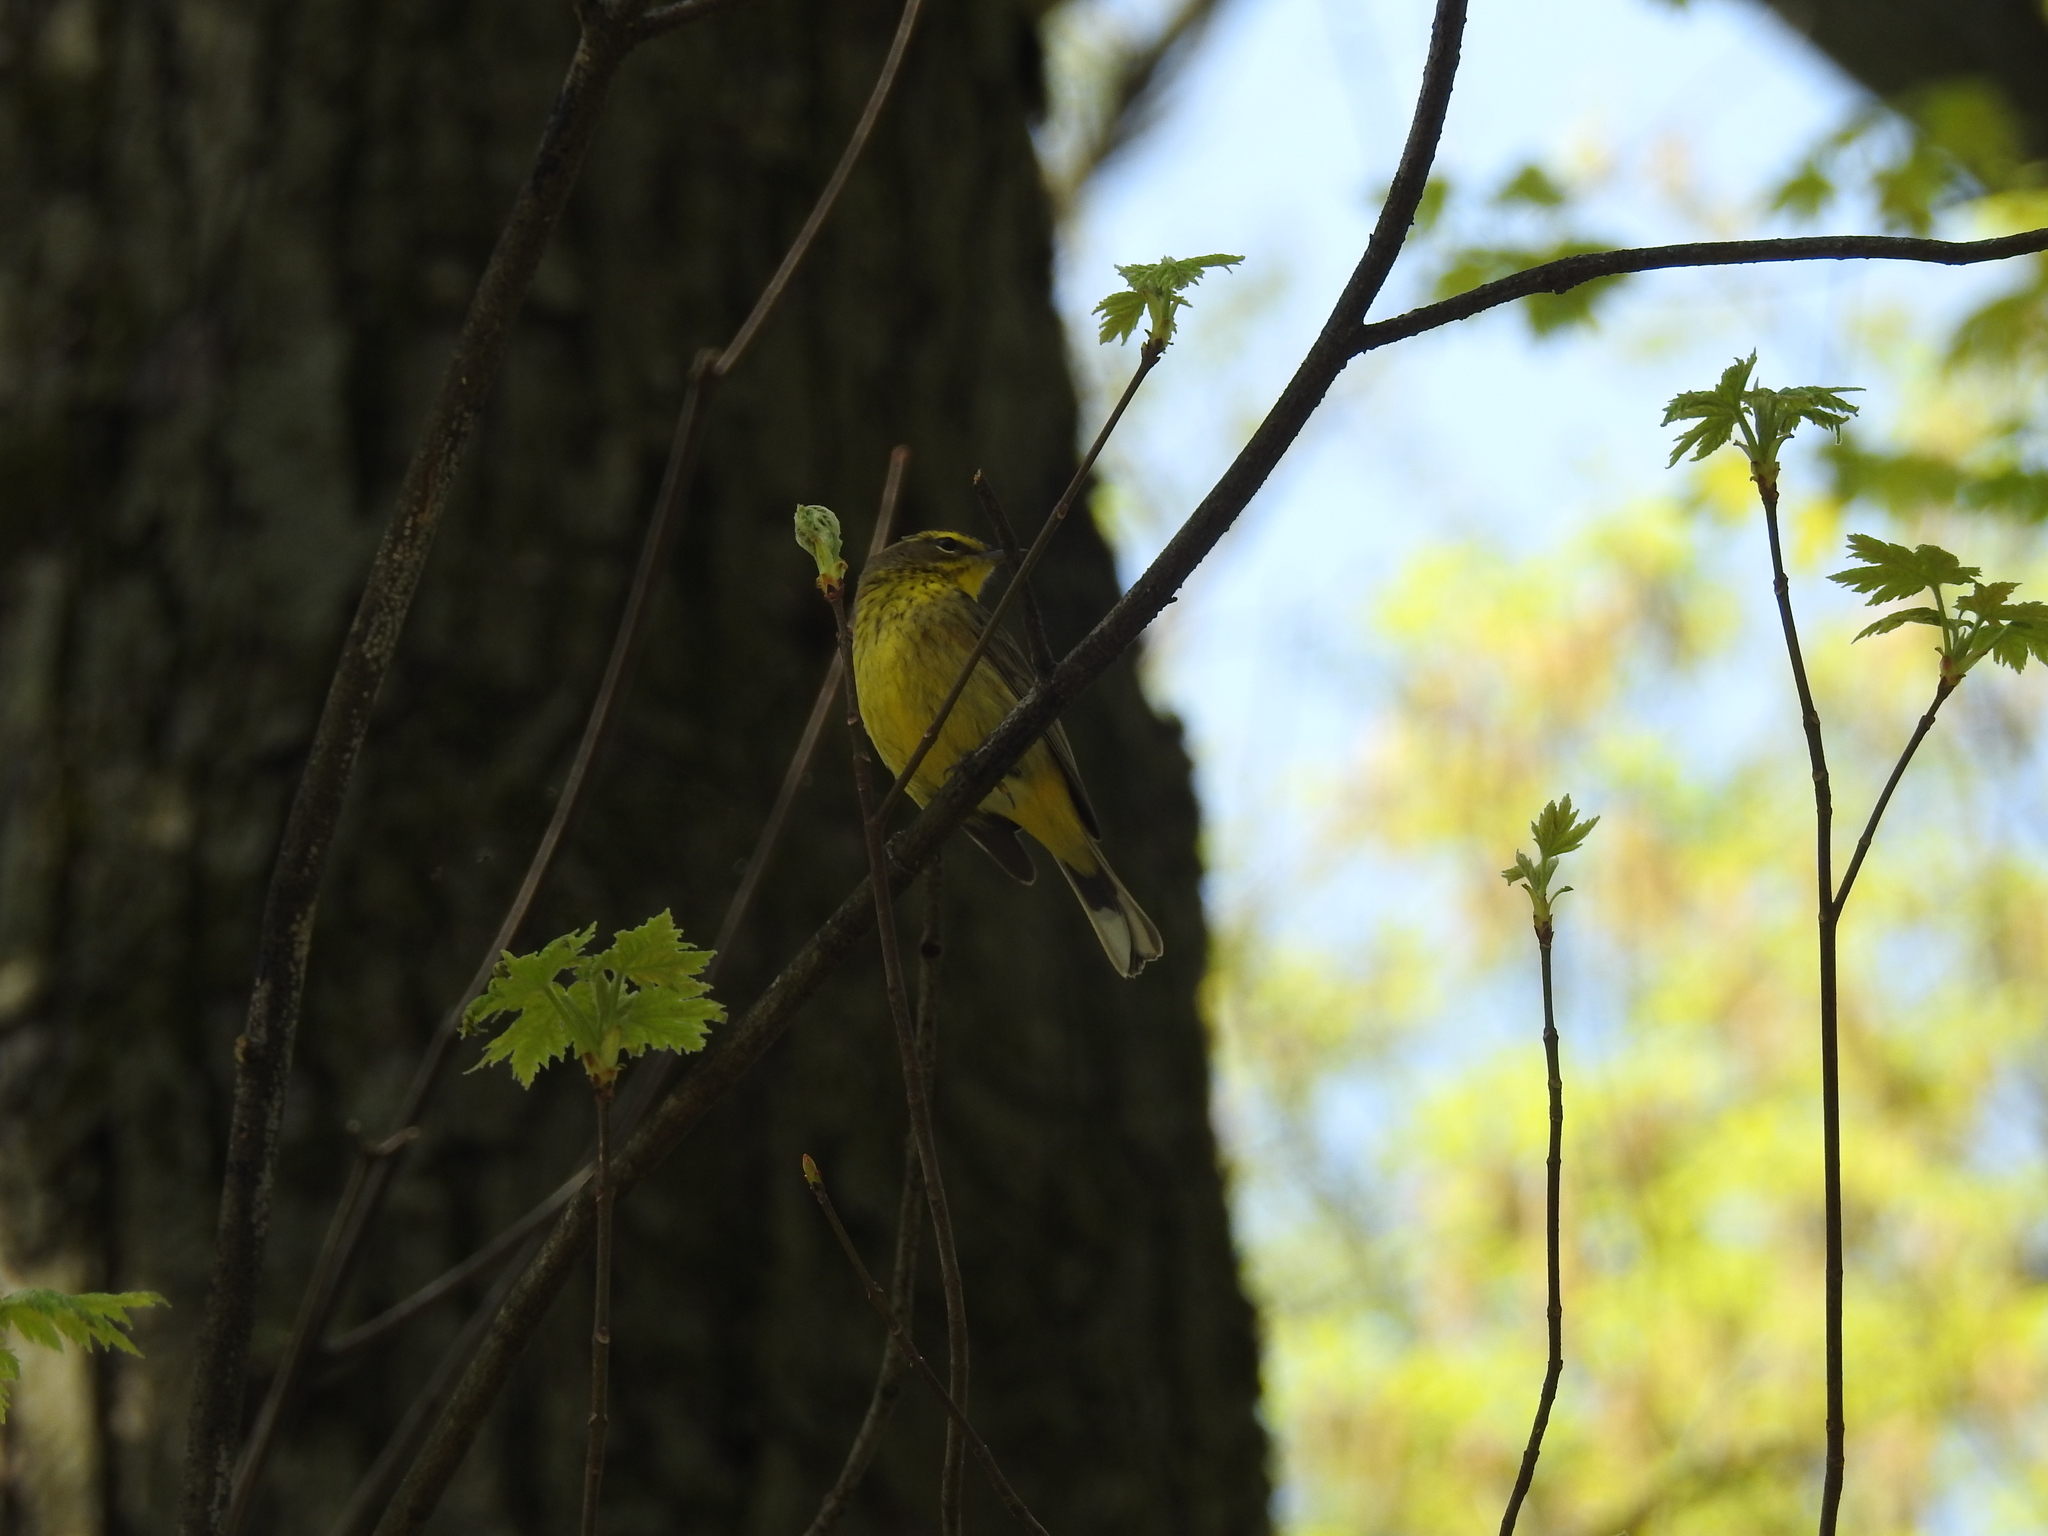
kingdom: Animalia
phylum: Chordata
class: Aves
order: Passeriformes
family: Parulidae
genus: Setophaga
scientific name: Setophaga palmarum
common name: Palm warbler
